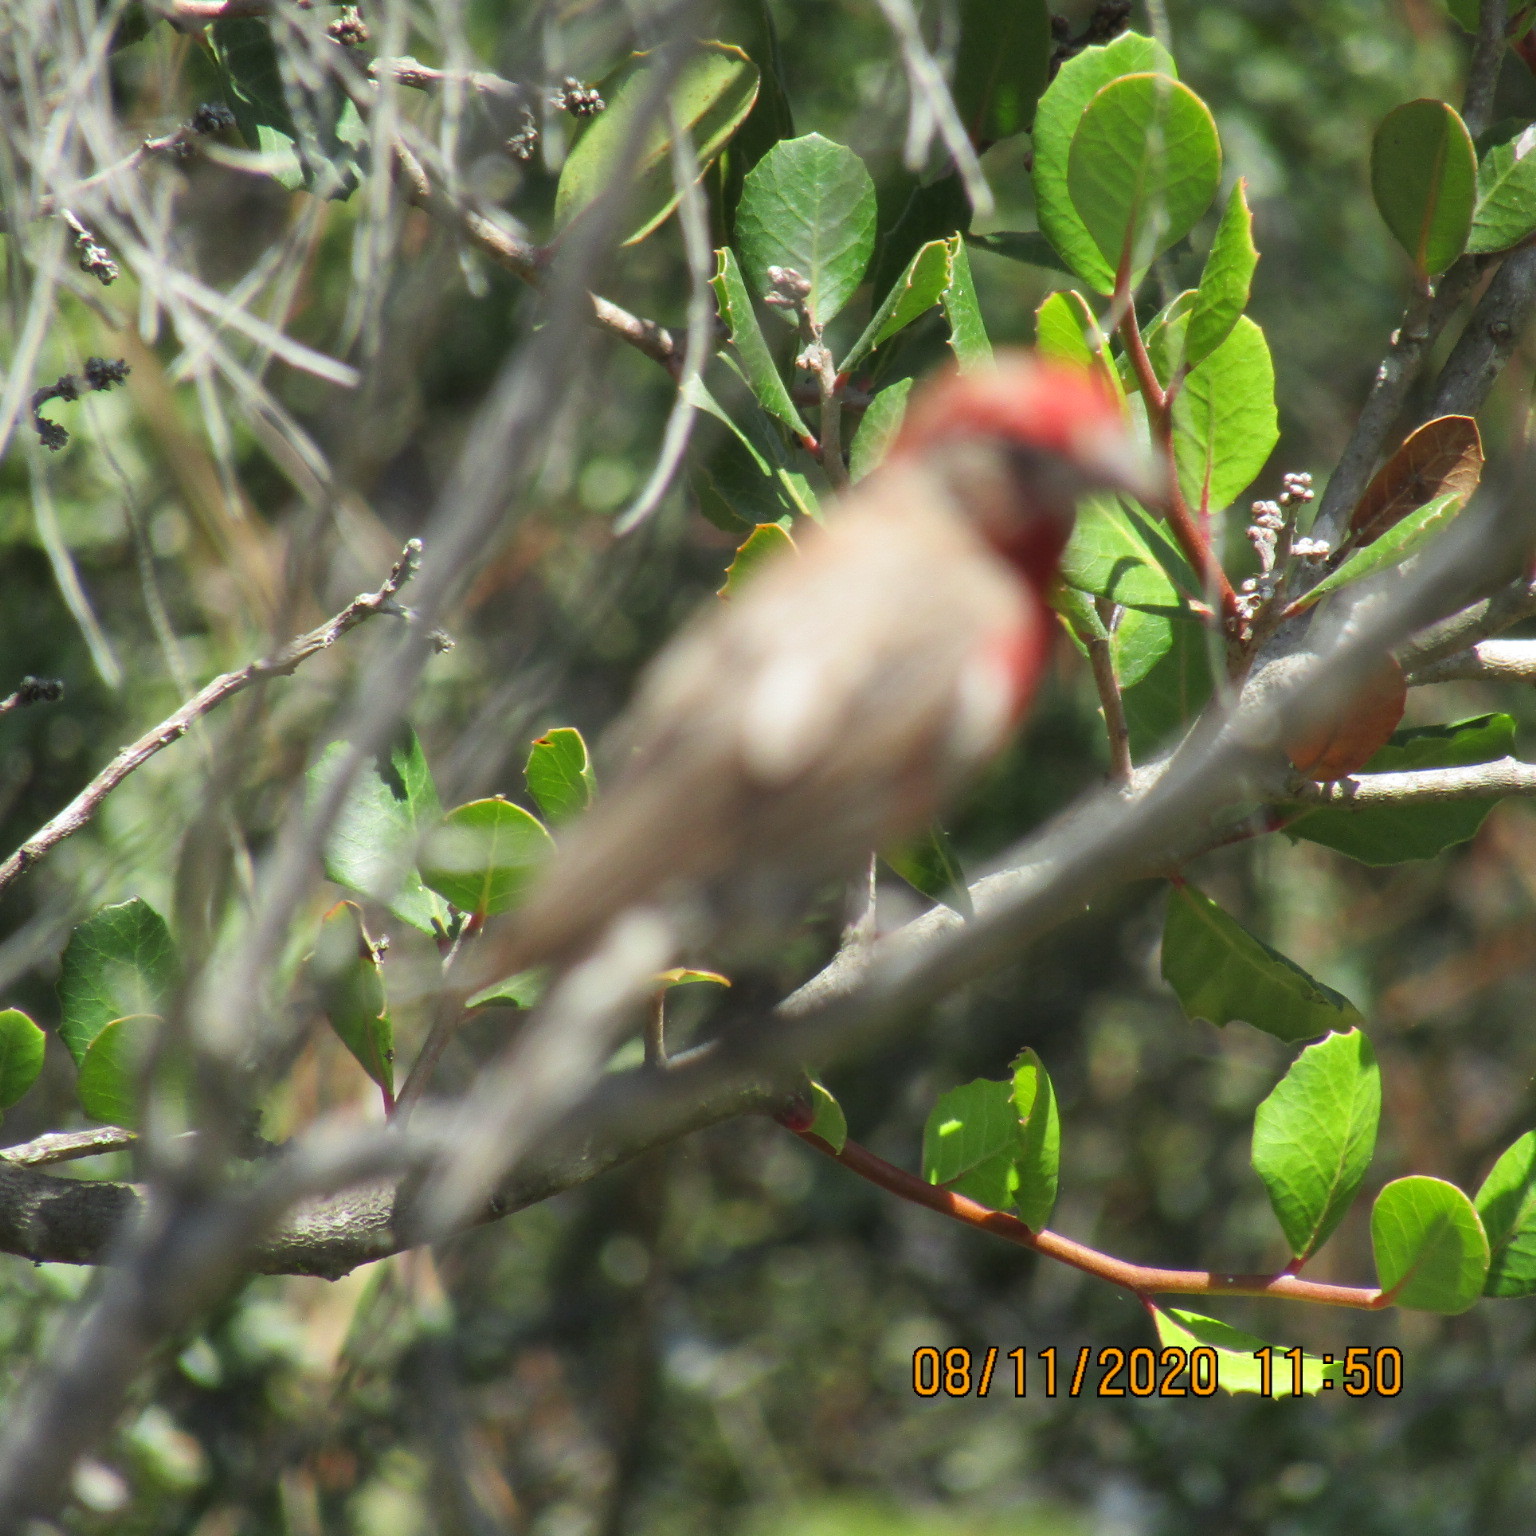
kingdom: Animalia
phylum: Chordata
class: Aves
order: Passeriformes
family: Fringillidae
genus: Haemorhous
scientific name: Haemorhous mexicanus
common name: House finch
